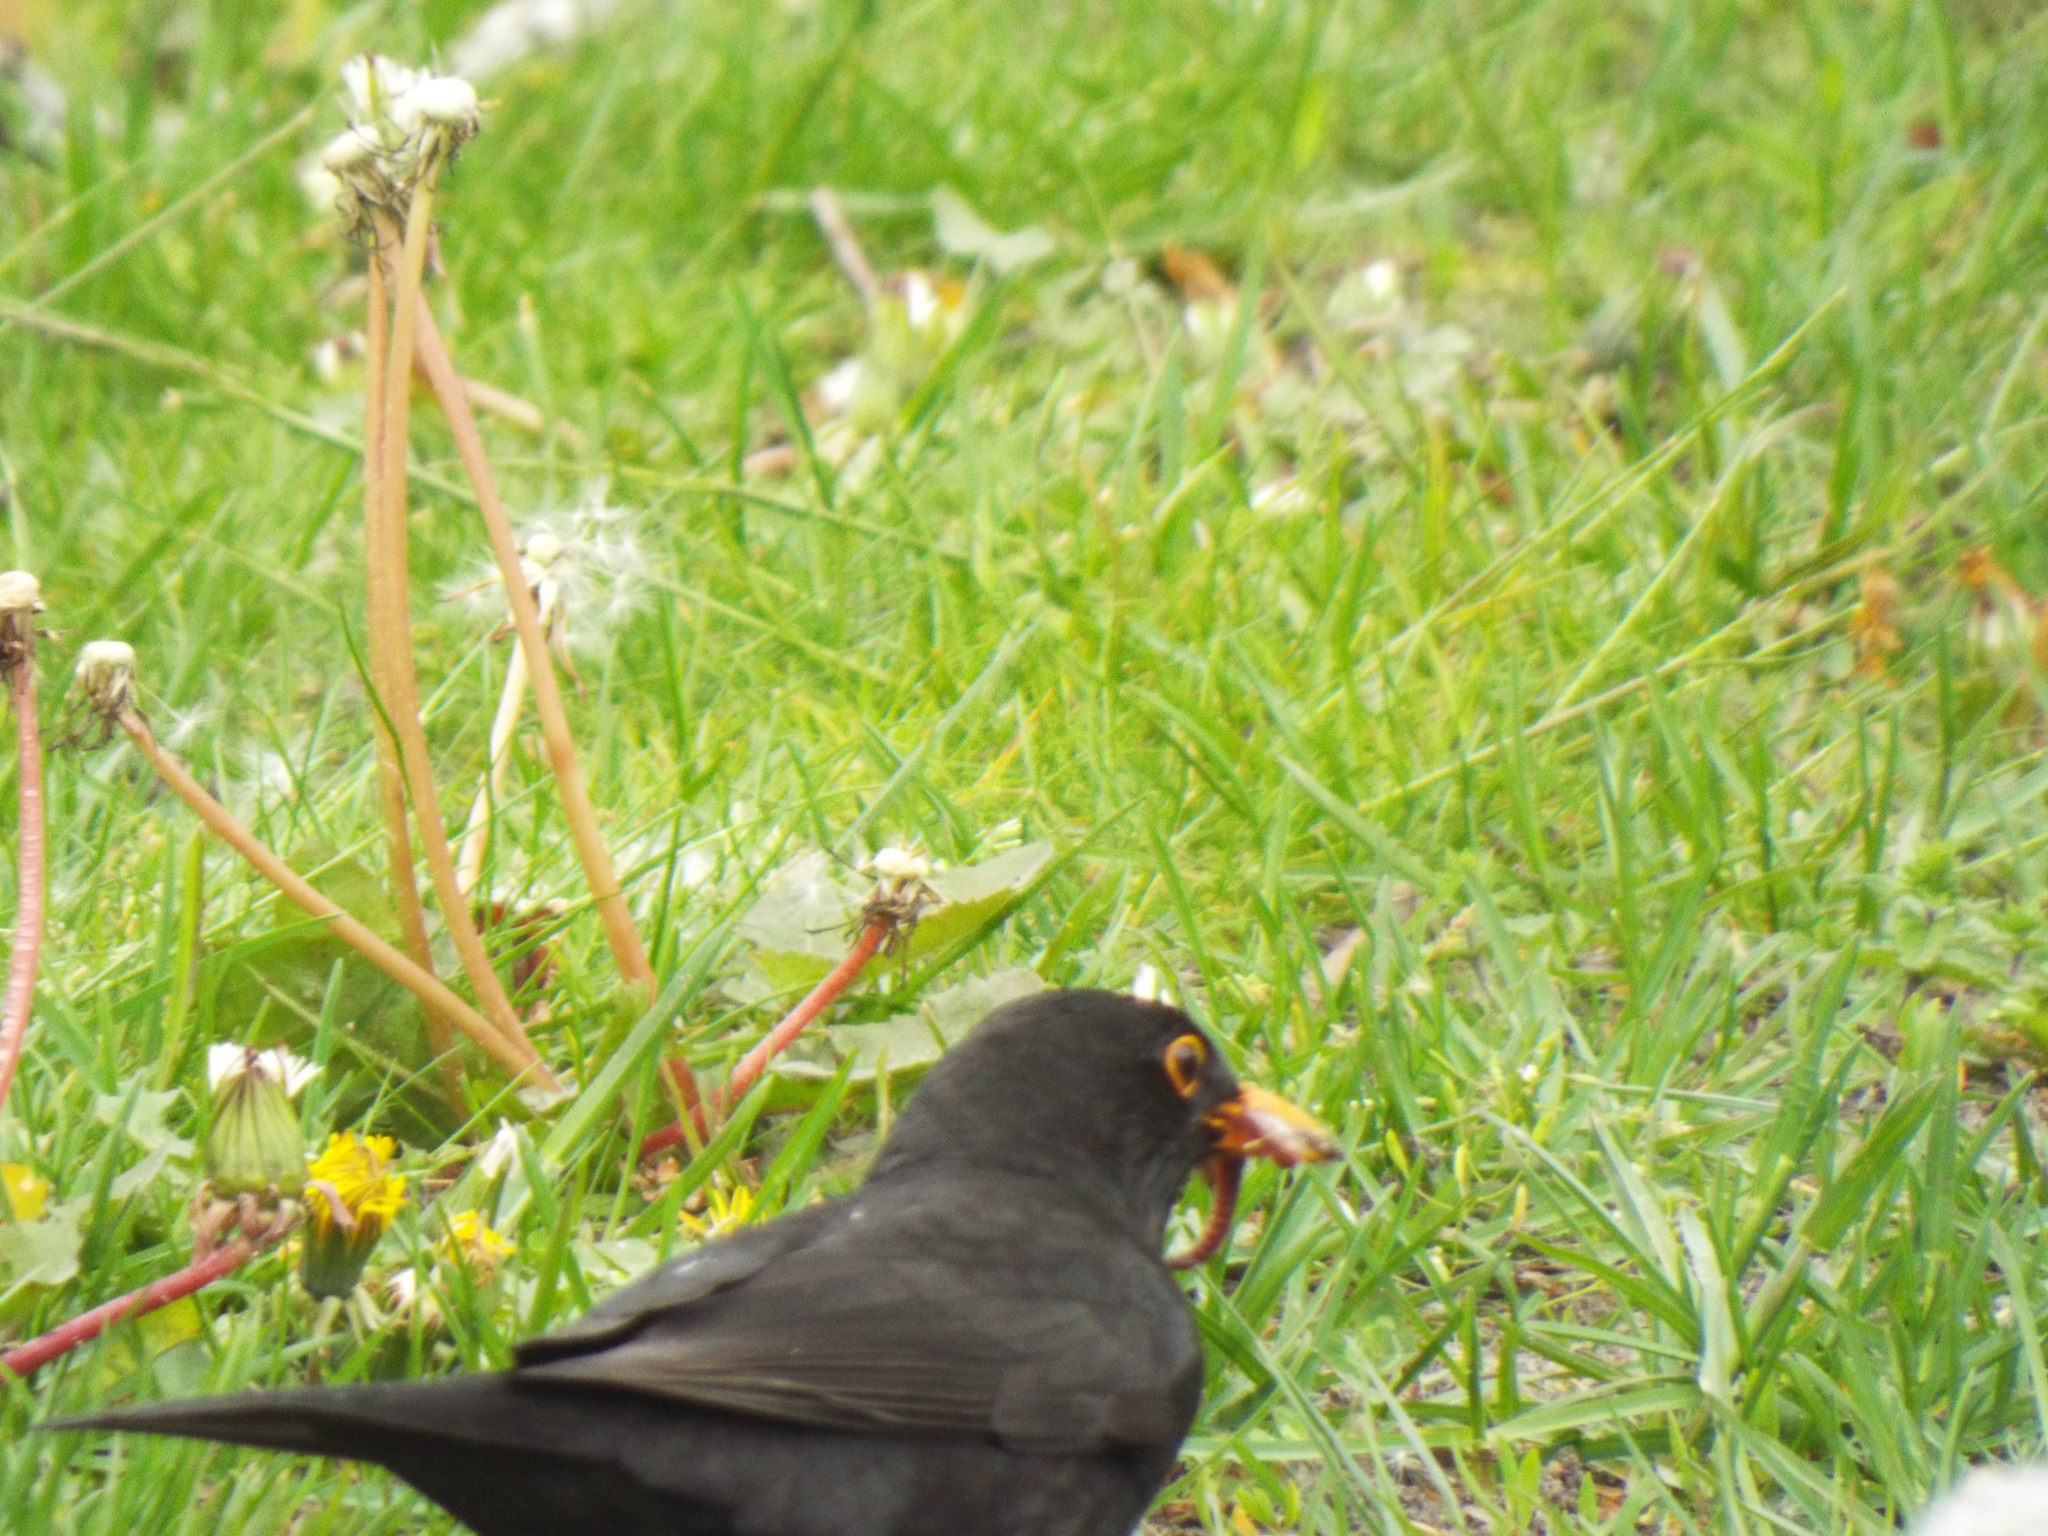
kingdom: Animalia
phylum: Chordata
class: Aves
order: Passeriformes
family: Turdidae
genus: Turdus
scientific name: Turdus merula
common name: Common blackbird
